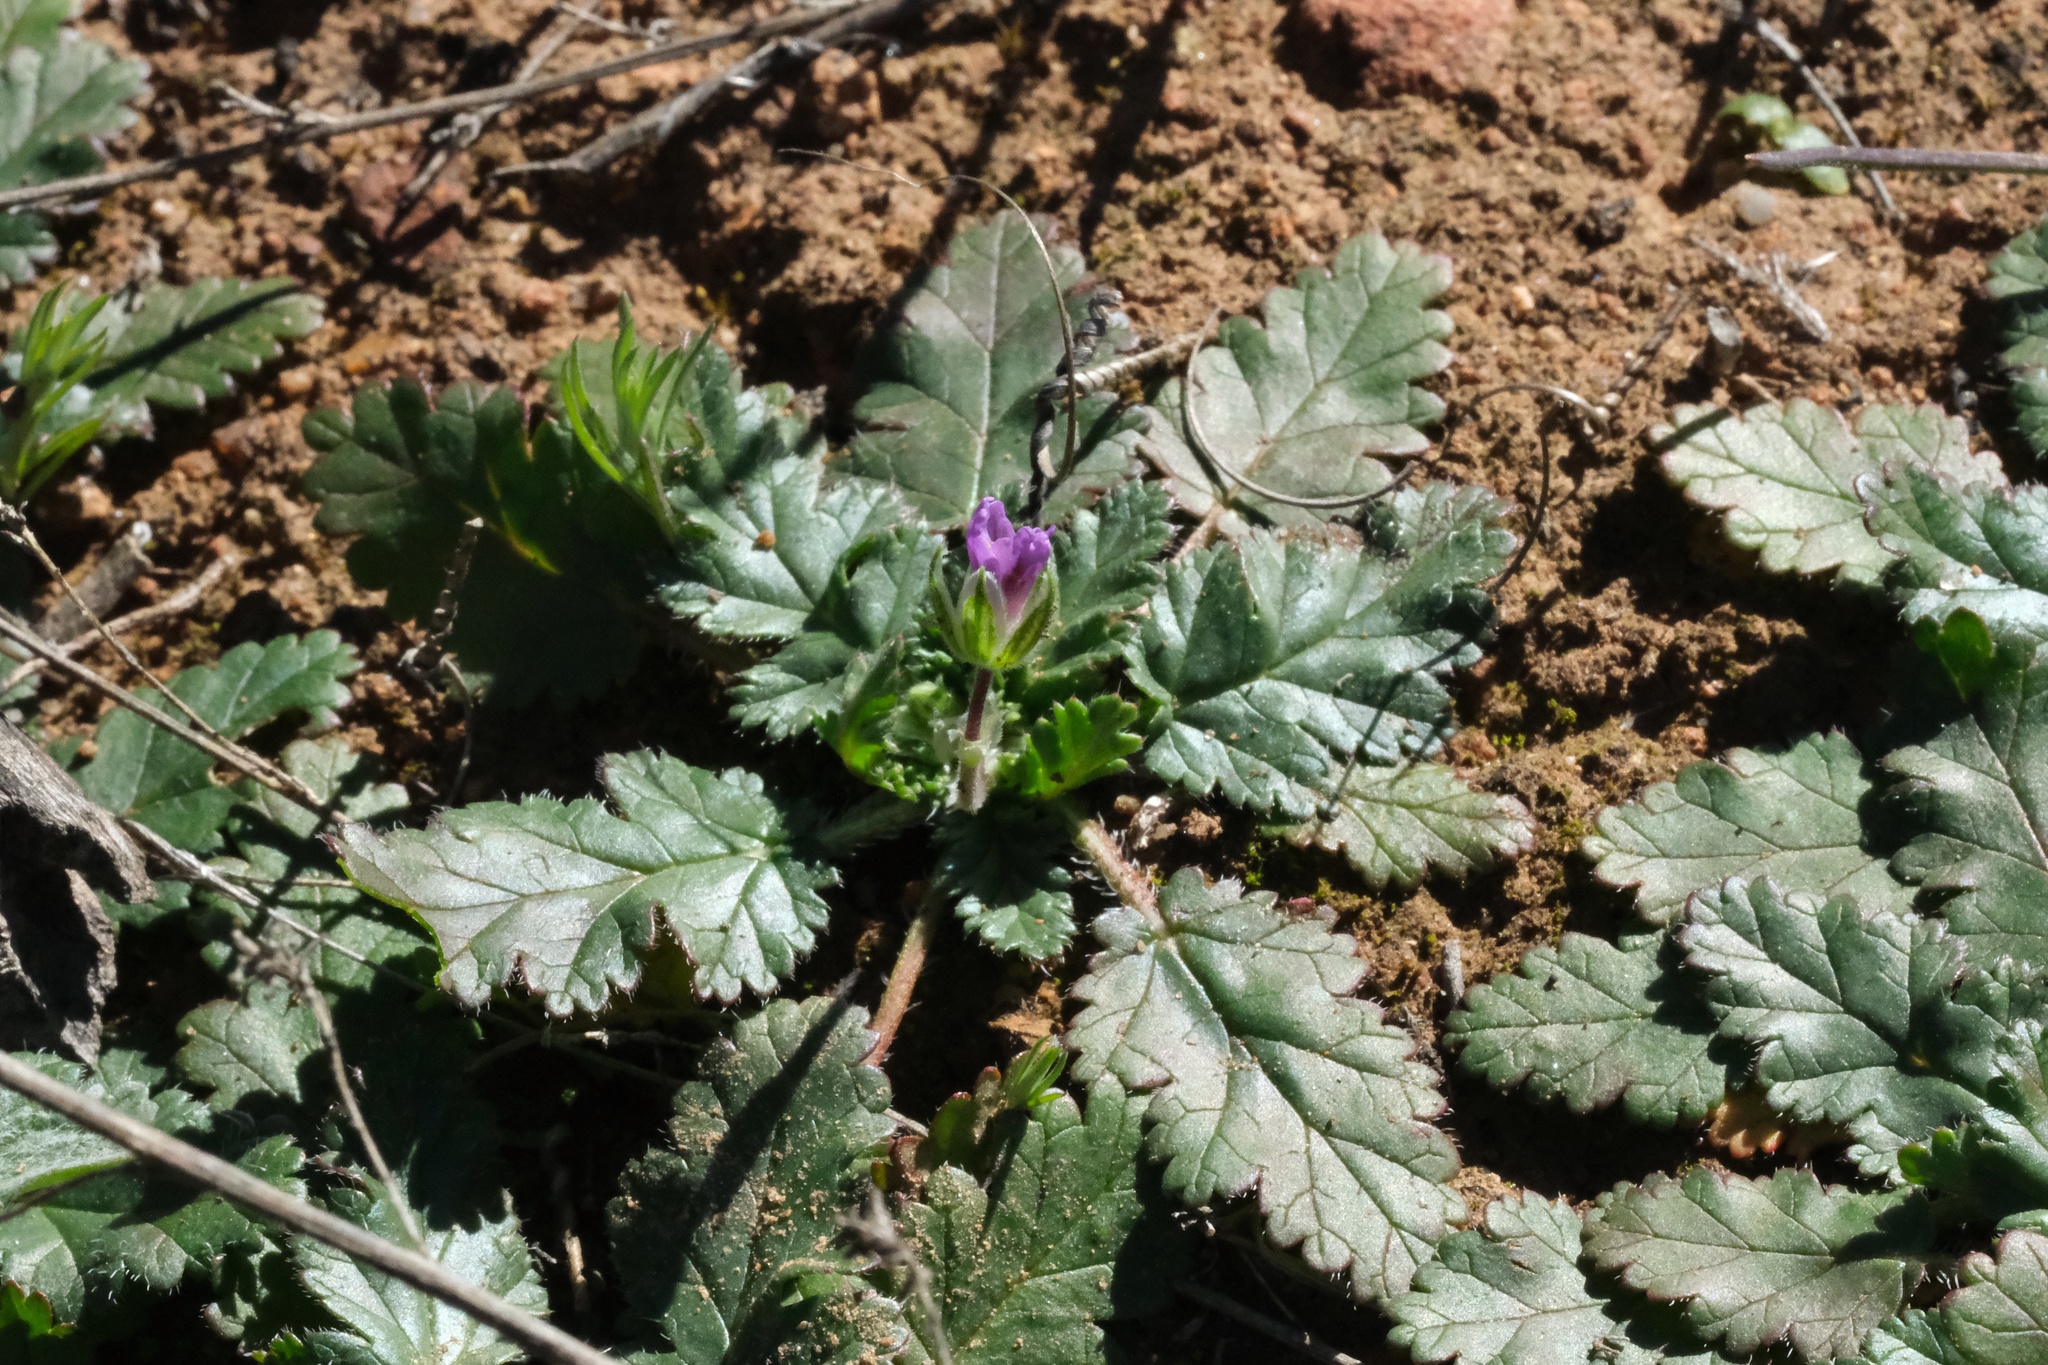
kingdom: Plantae
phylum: Tracheophyta
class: Magnoliopsida
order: Geraniales
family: Geraniaceae
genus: Erodium
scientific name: Erodium botrys
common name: Mediterranean stork's-bill
